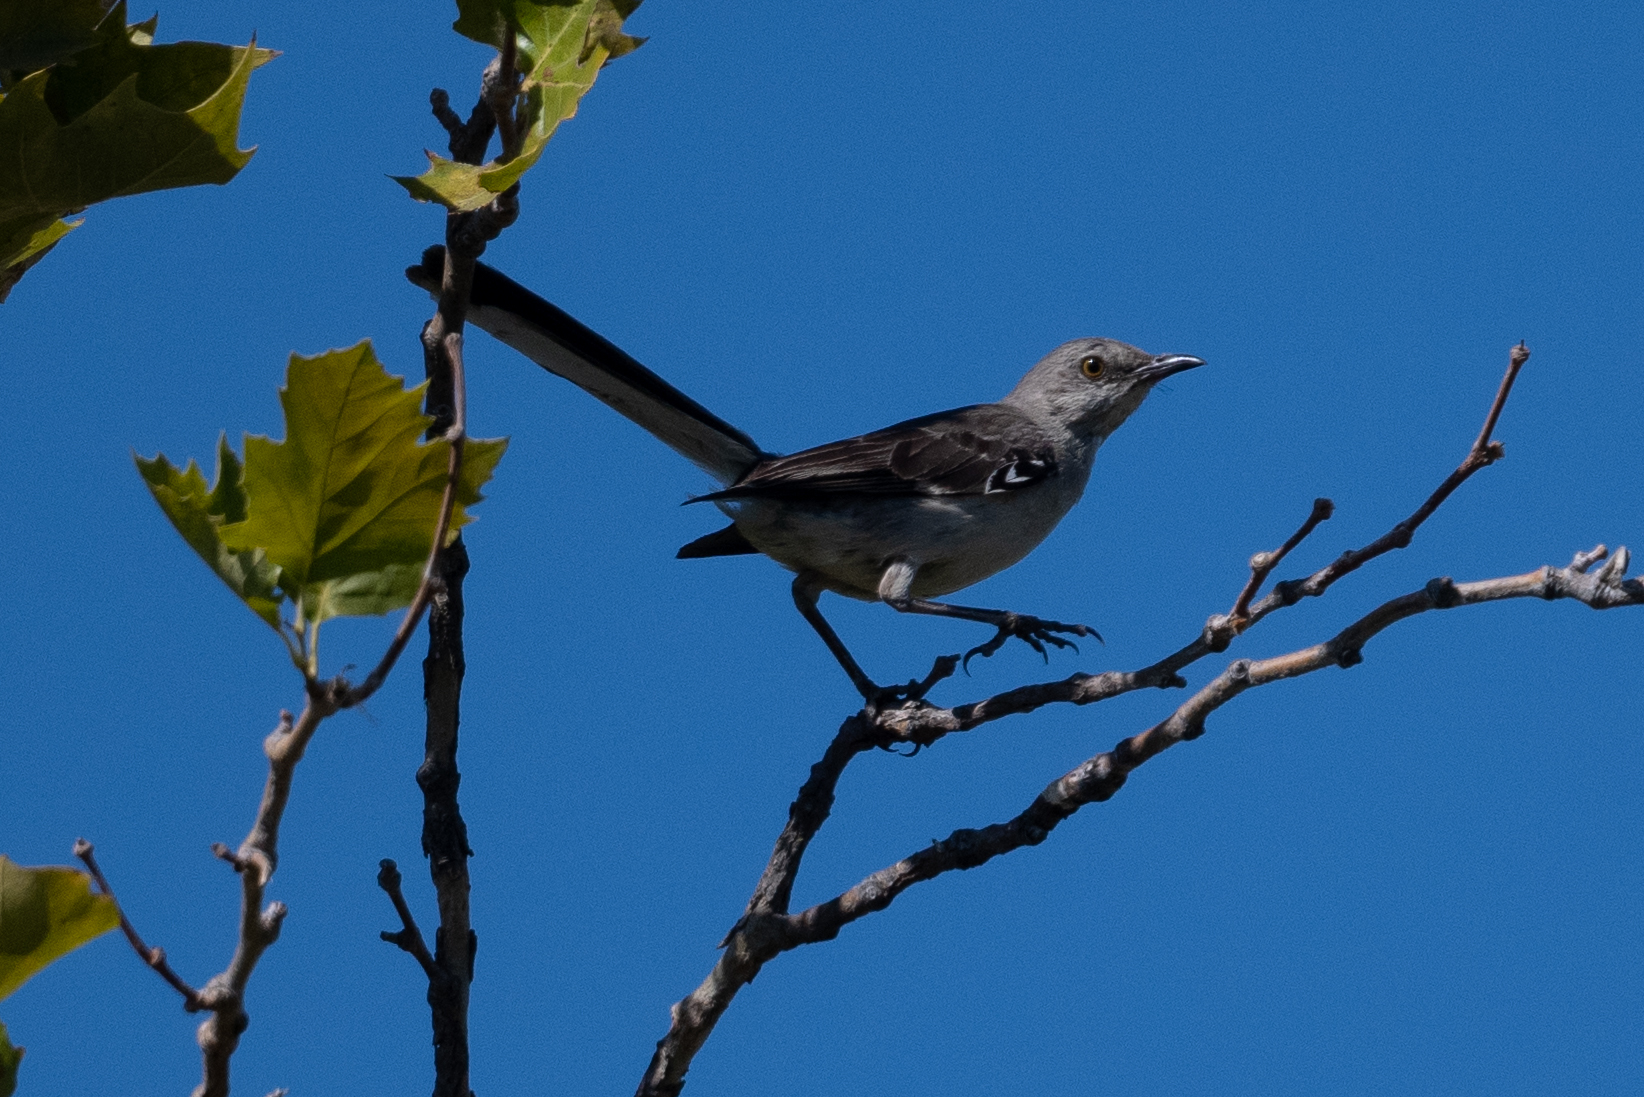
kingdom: Animalia
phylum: Chordata
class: Aves
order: Passeriformes
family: Mimidae
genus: Mimus
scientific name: Mimus polyglottos
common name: Northern mockingbird
